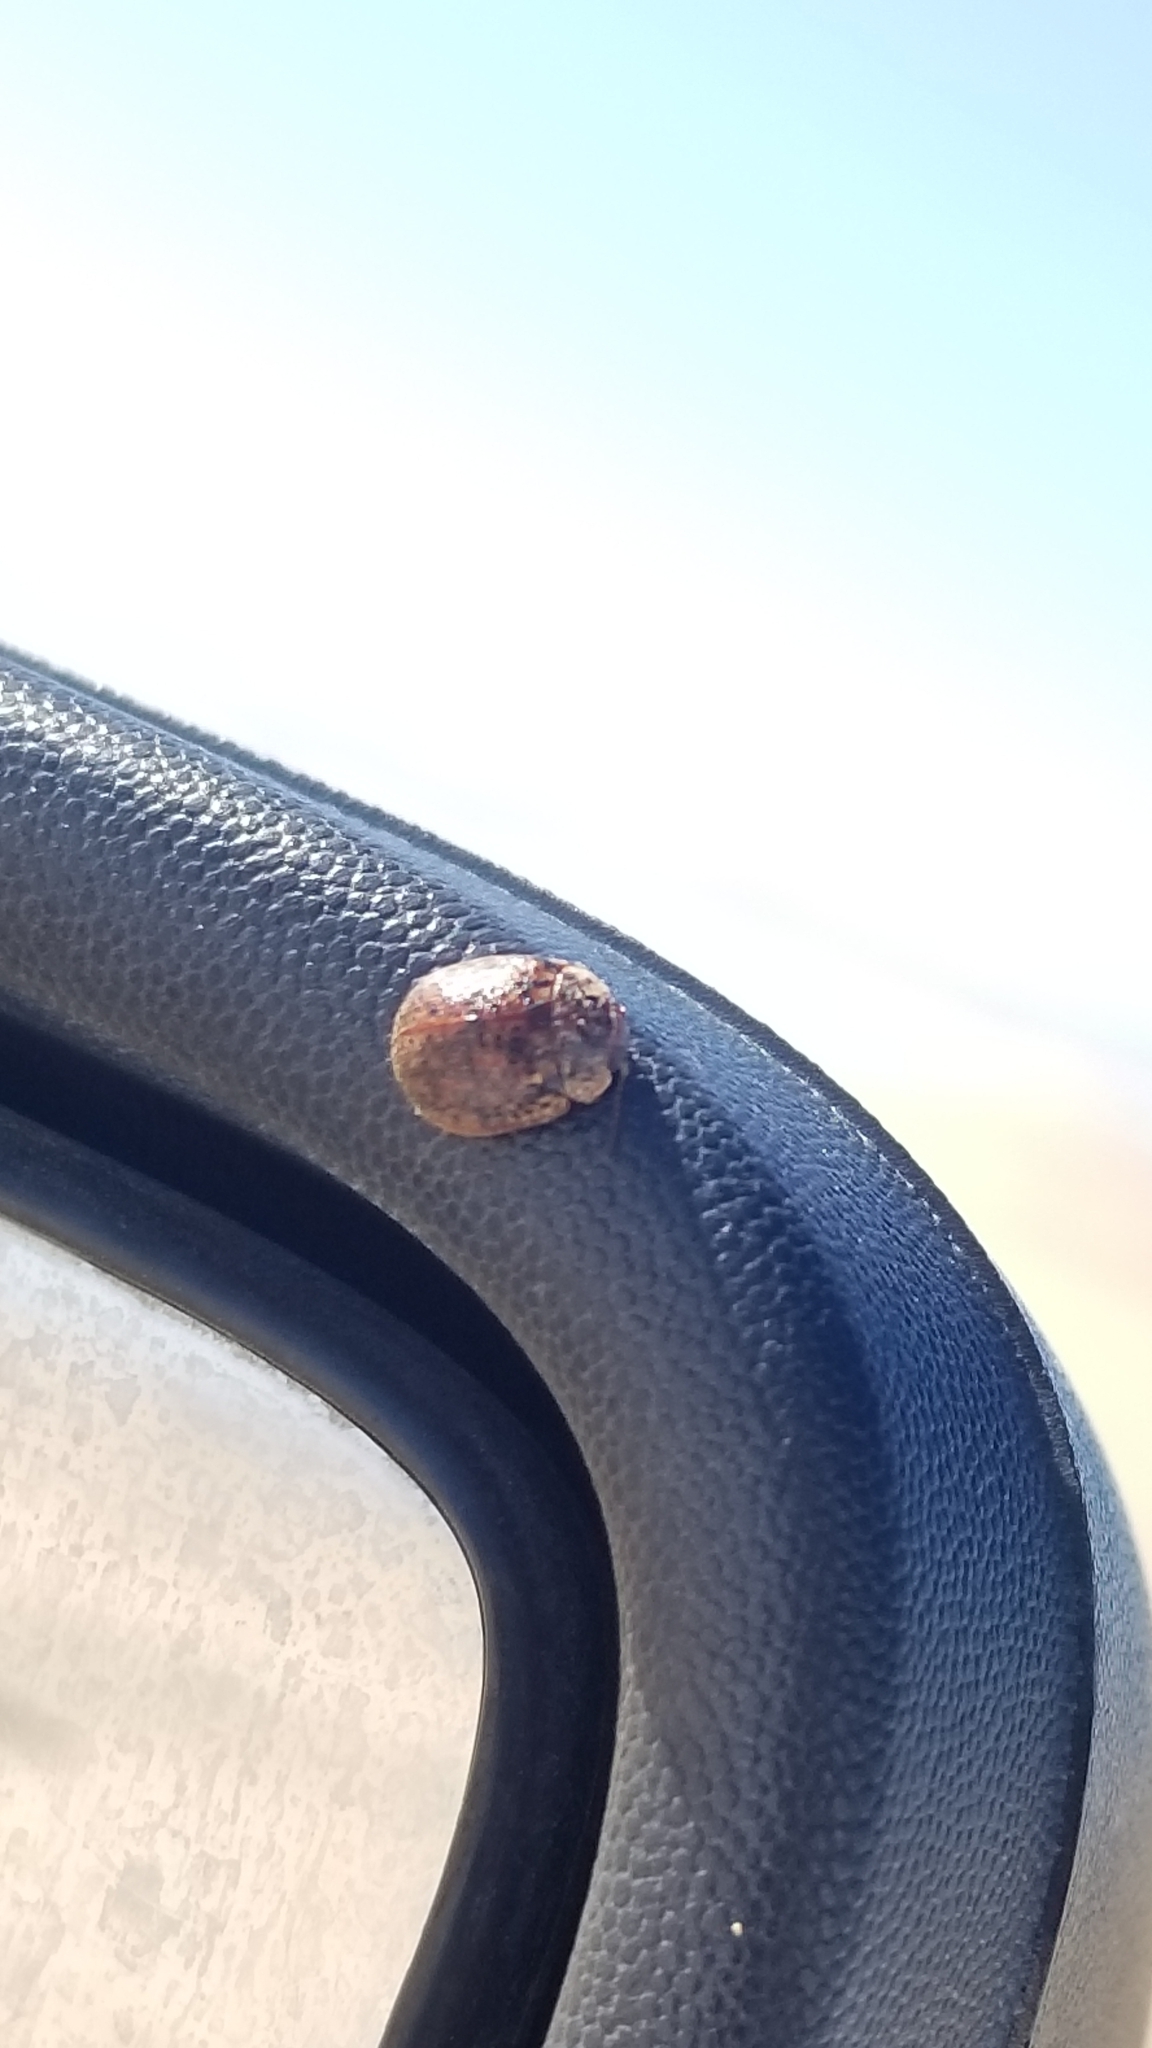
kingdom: Animalia
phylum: Arthropoda
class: Insecta
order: Coleoptera
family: Chrysomelidae
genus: Trachymela
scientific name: Trachymela sloanei
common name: Australian tortoise beetle
